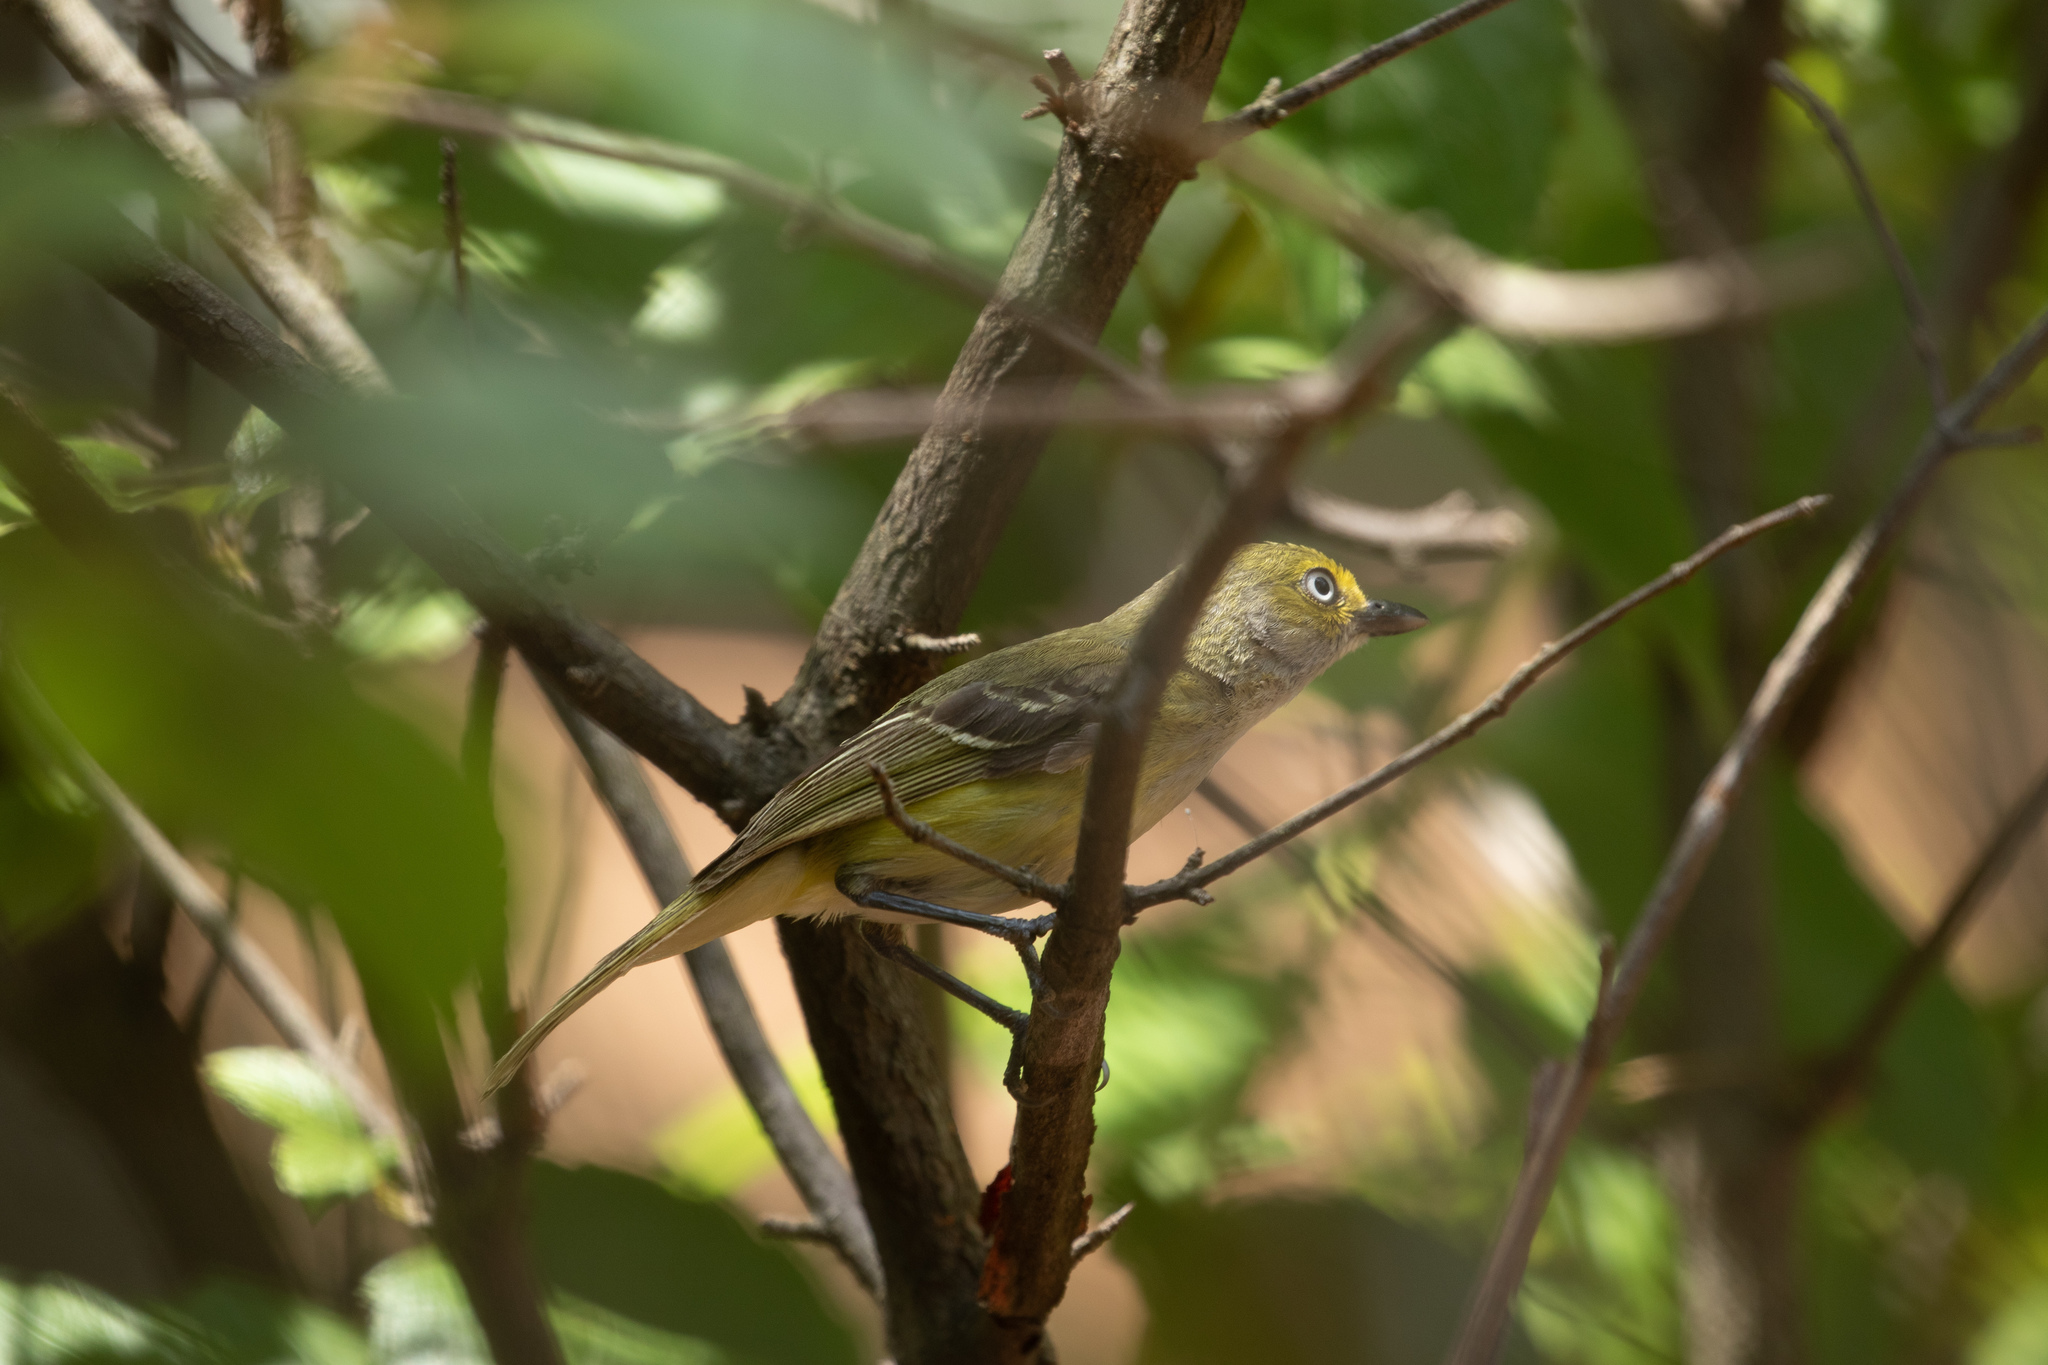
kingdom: Animalia
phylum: Chordata
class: Aves
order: Passeriformes
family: Vireonidae
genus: Vireo
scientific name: Vireo griseus
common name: White-eyed vireo
